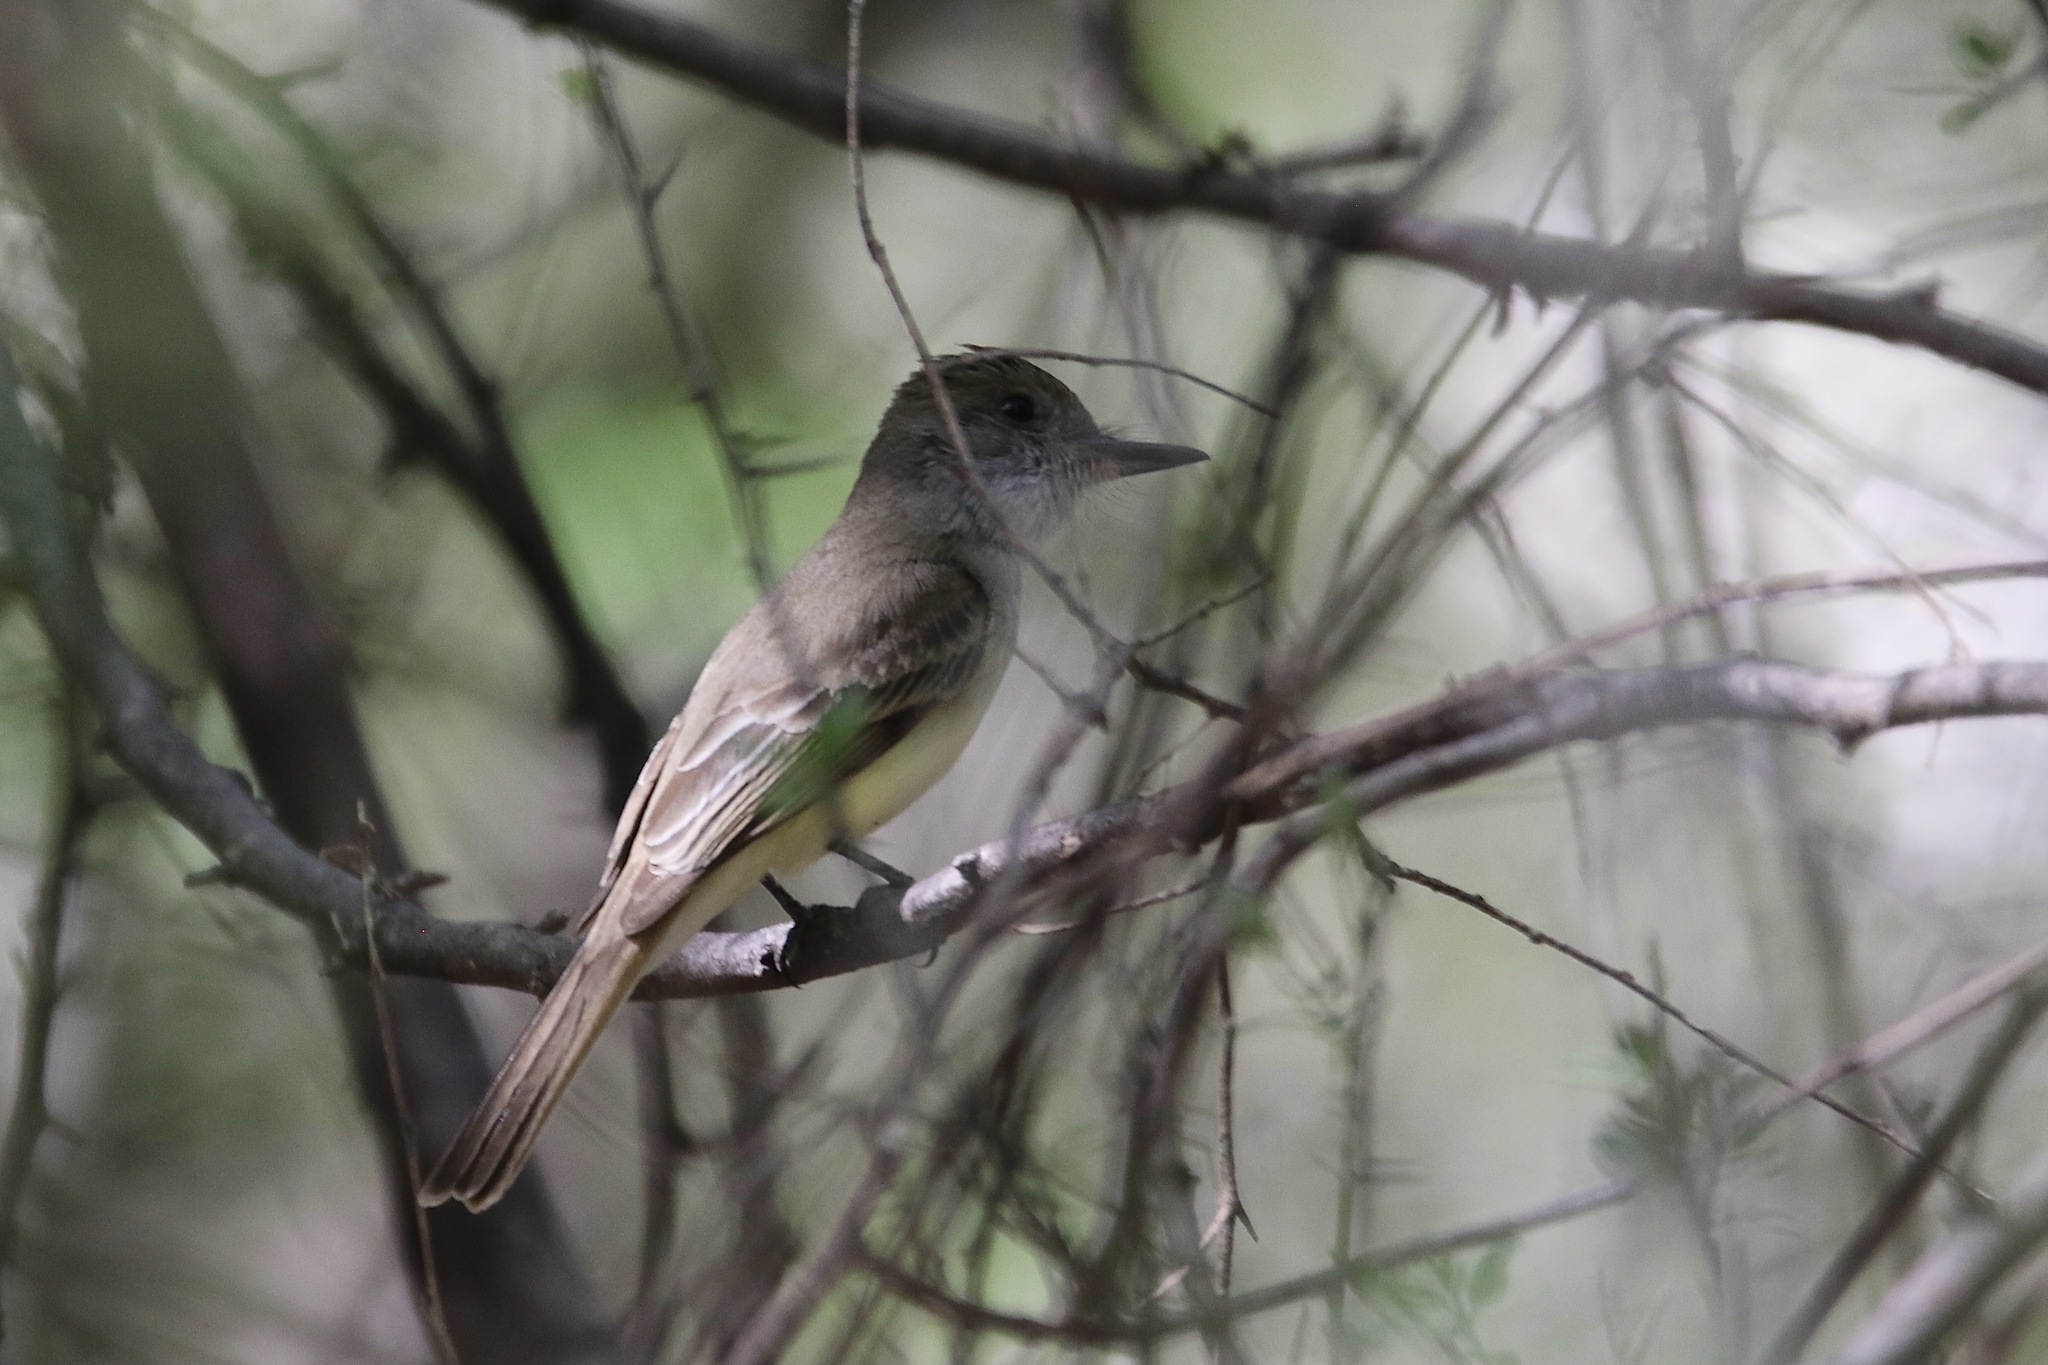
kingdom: Animalia
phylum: Chordata
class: Aves
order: Passeriformes
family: Tyrannidae
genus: Myiarchus
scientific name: Myiarchus tuberculifer
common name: Dusky-capped flycatcher
